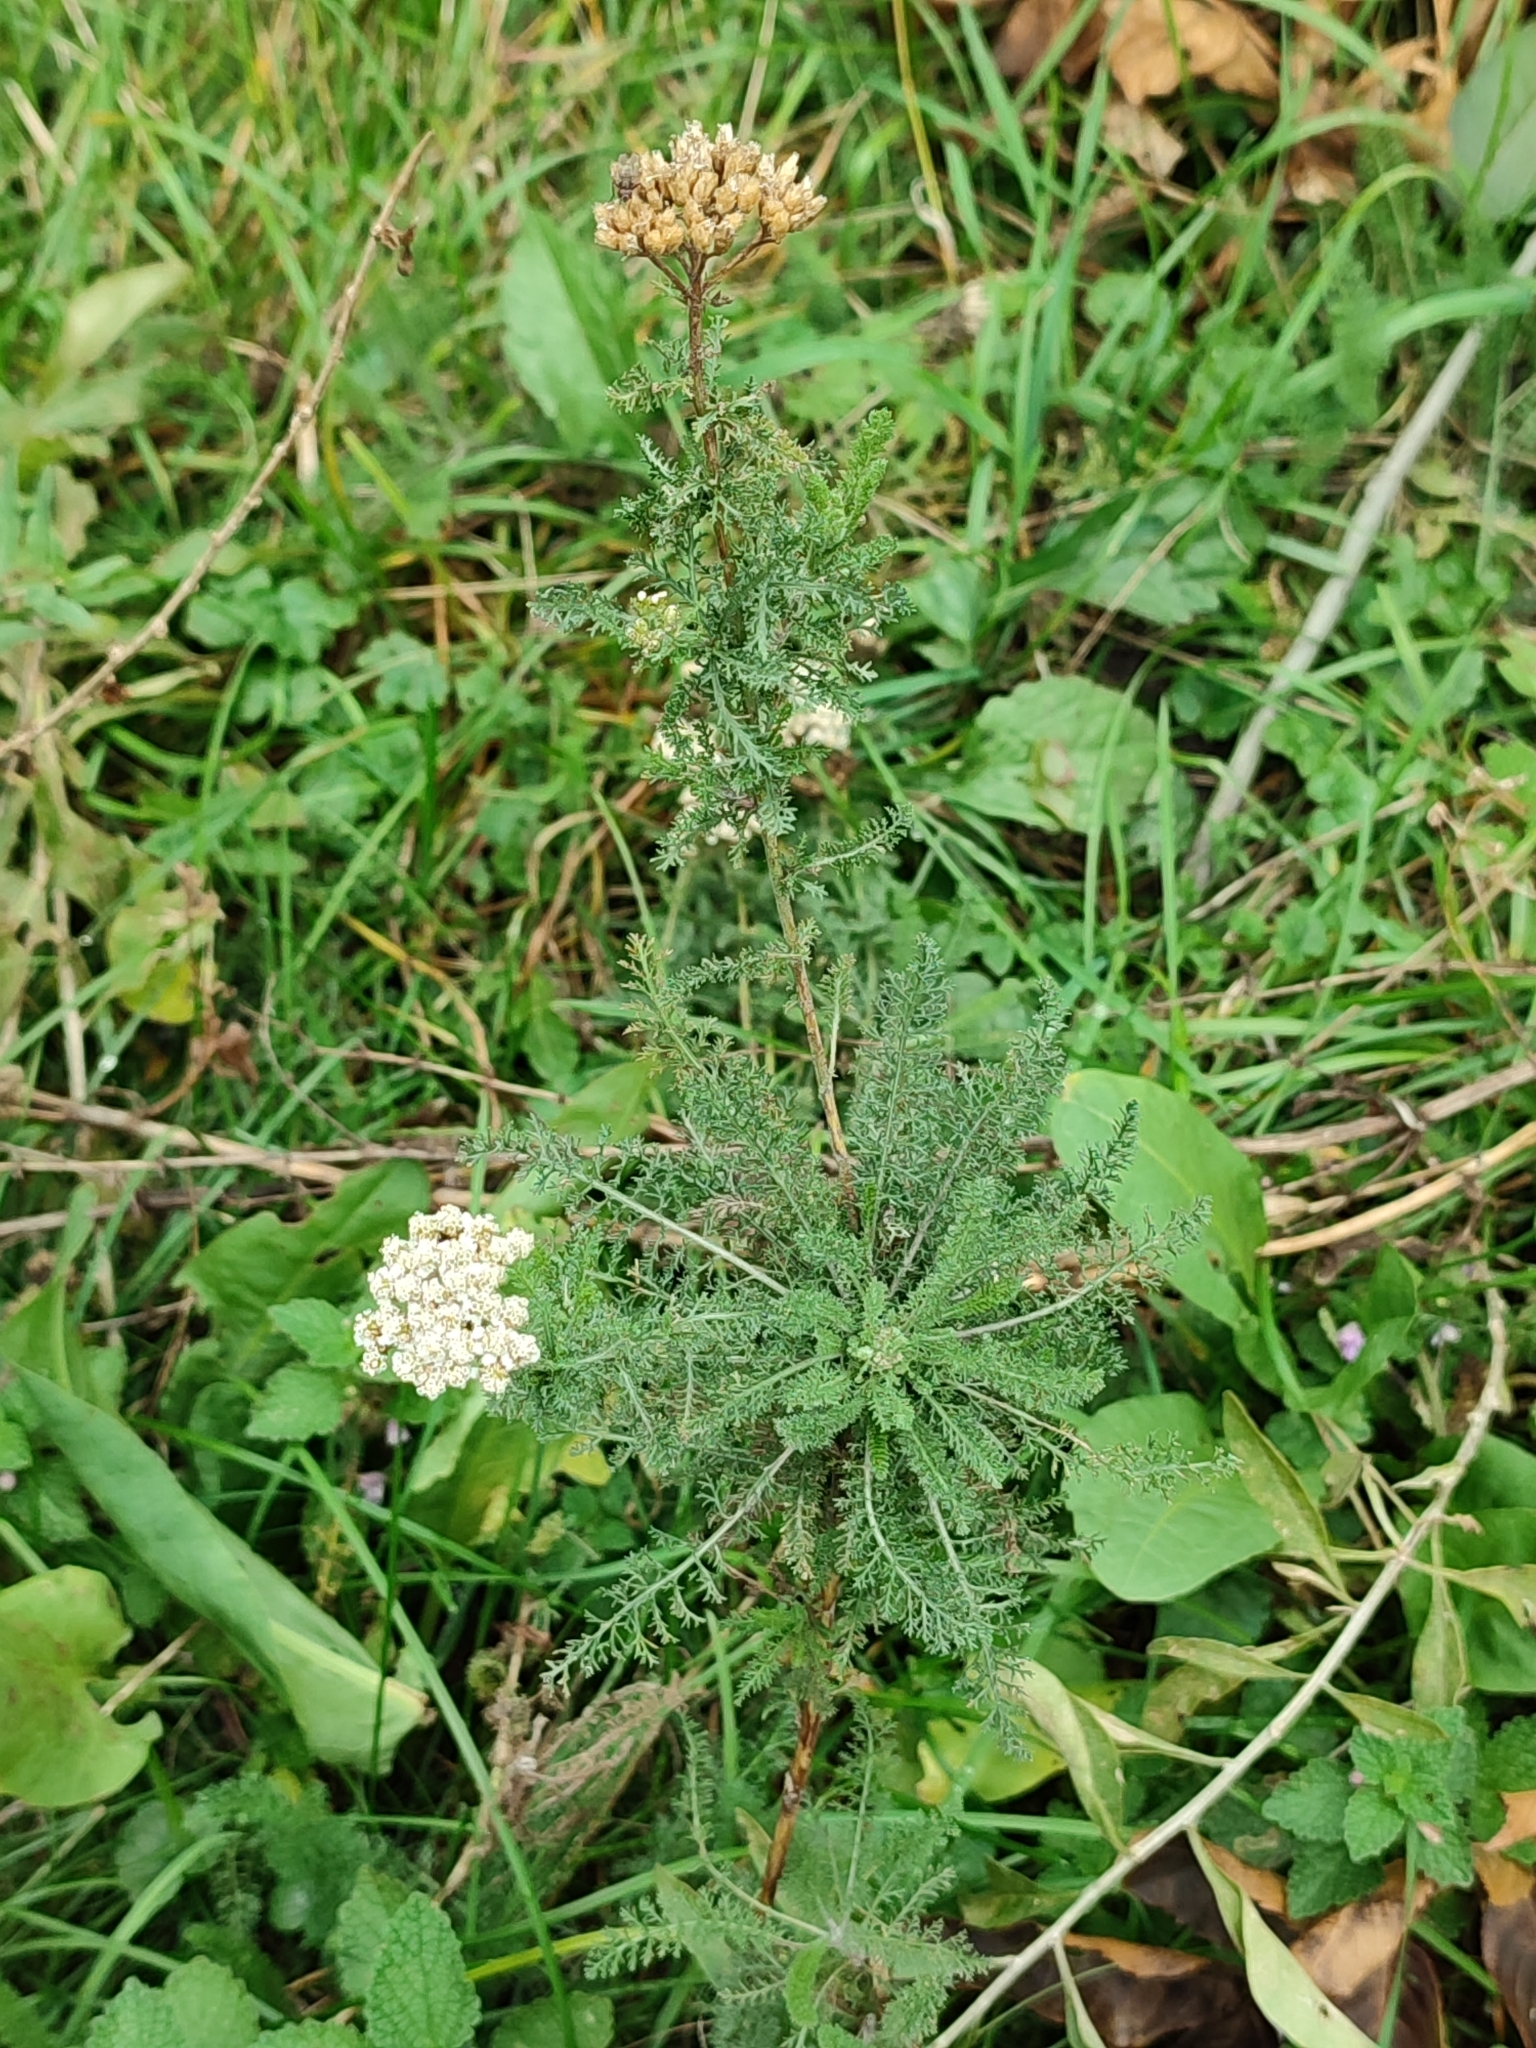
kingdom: Plantae
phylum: Tracheophyta
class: Magnoliopsida
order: Asterales
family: Asteraceae
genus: Achillea
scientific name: Achillea millefolium
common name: Yarrow
